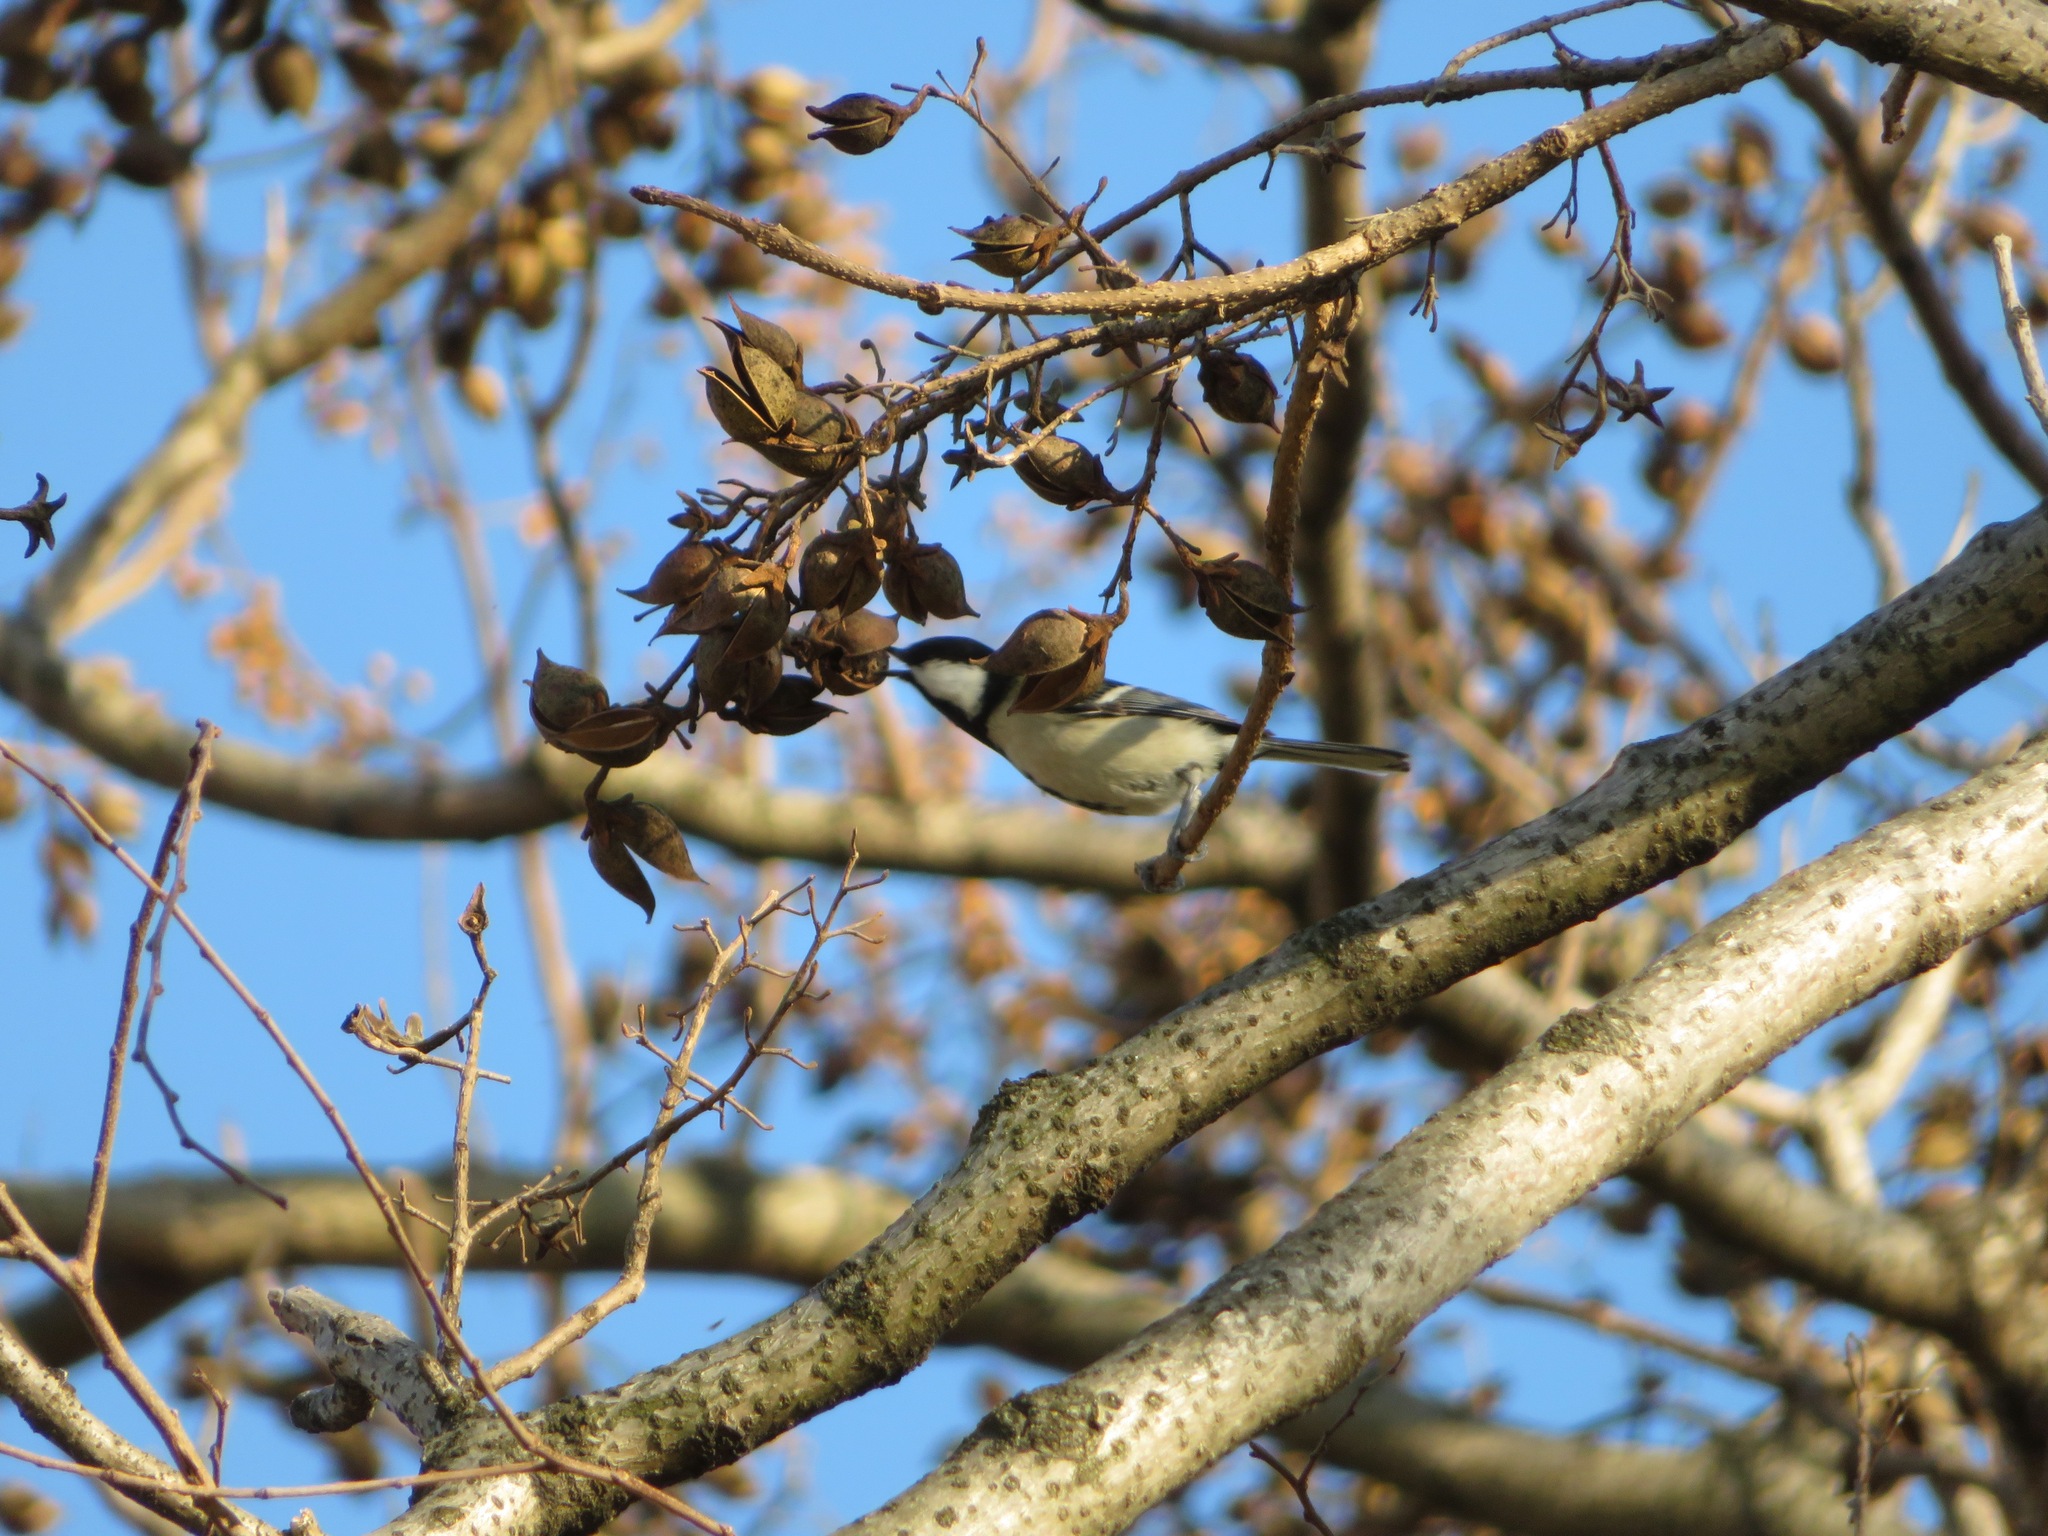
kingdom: Animalia
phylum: Chordata
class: Aves
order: Passeriformes
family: Paridae
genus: Parus
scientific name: Parus minor
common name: Japanese tit
